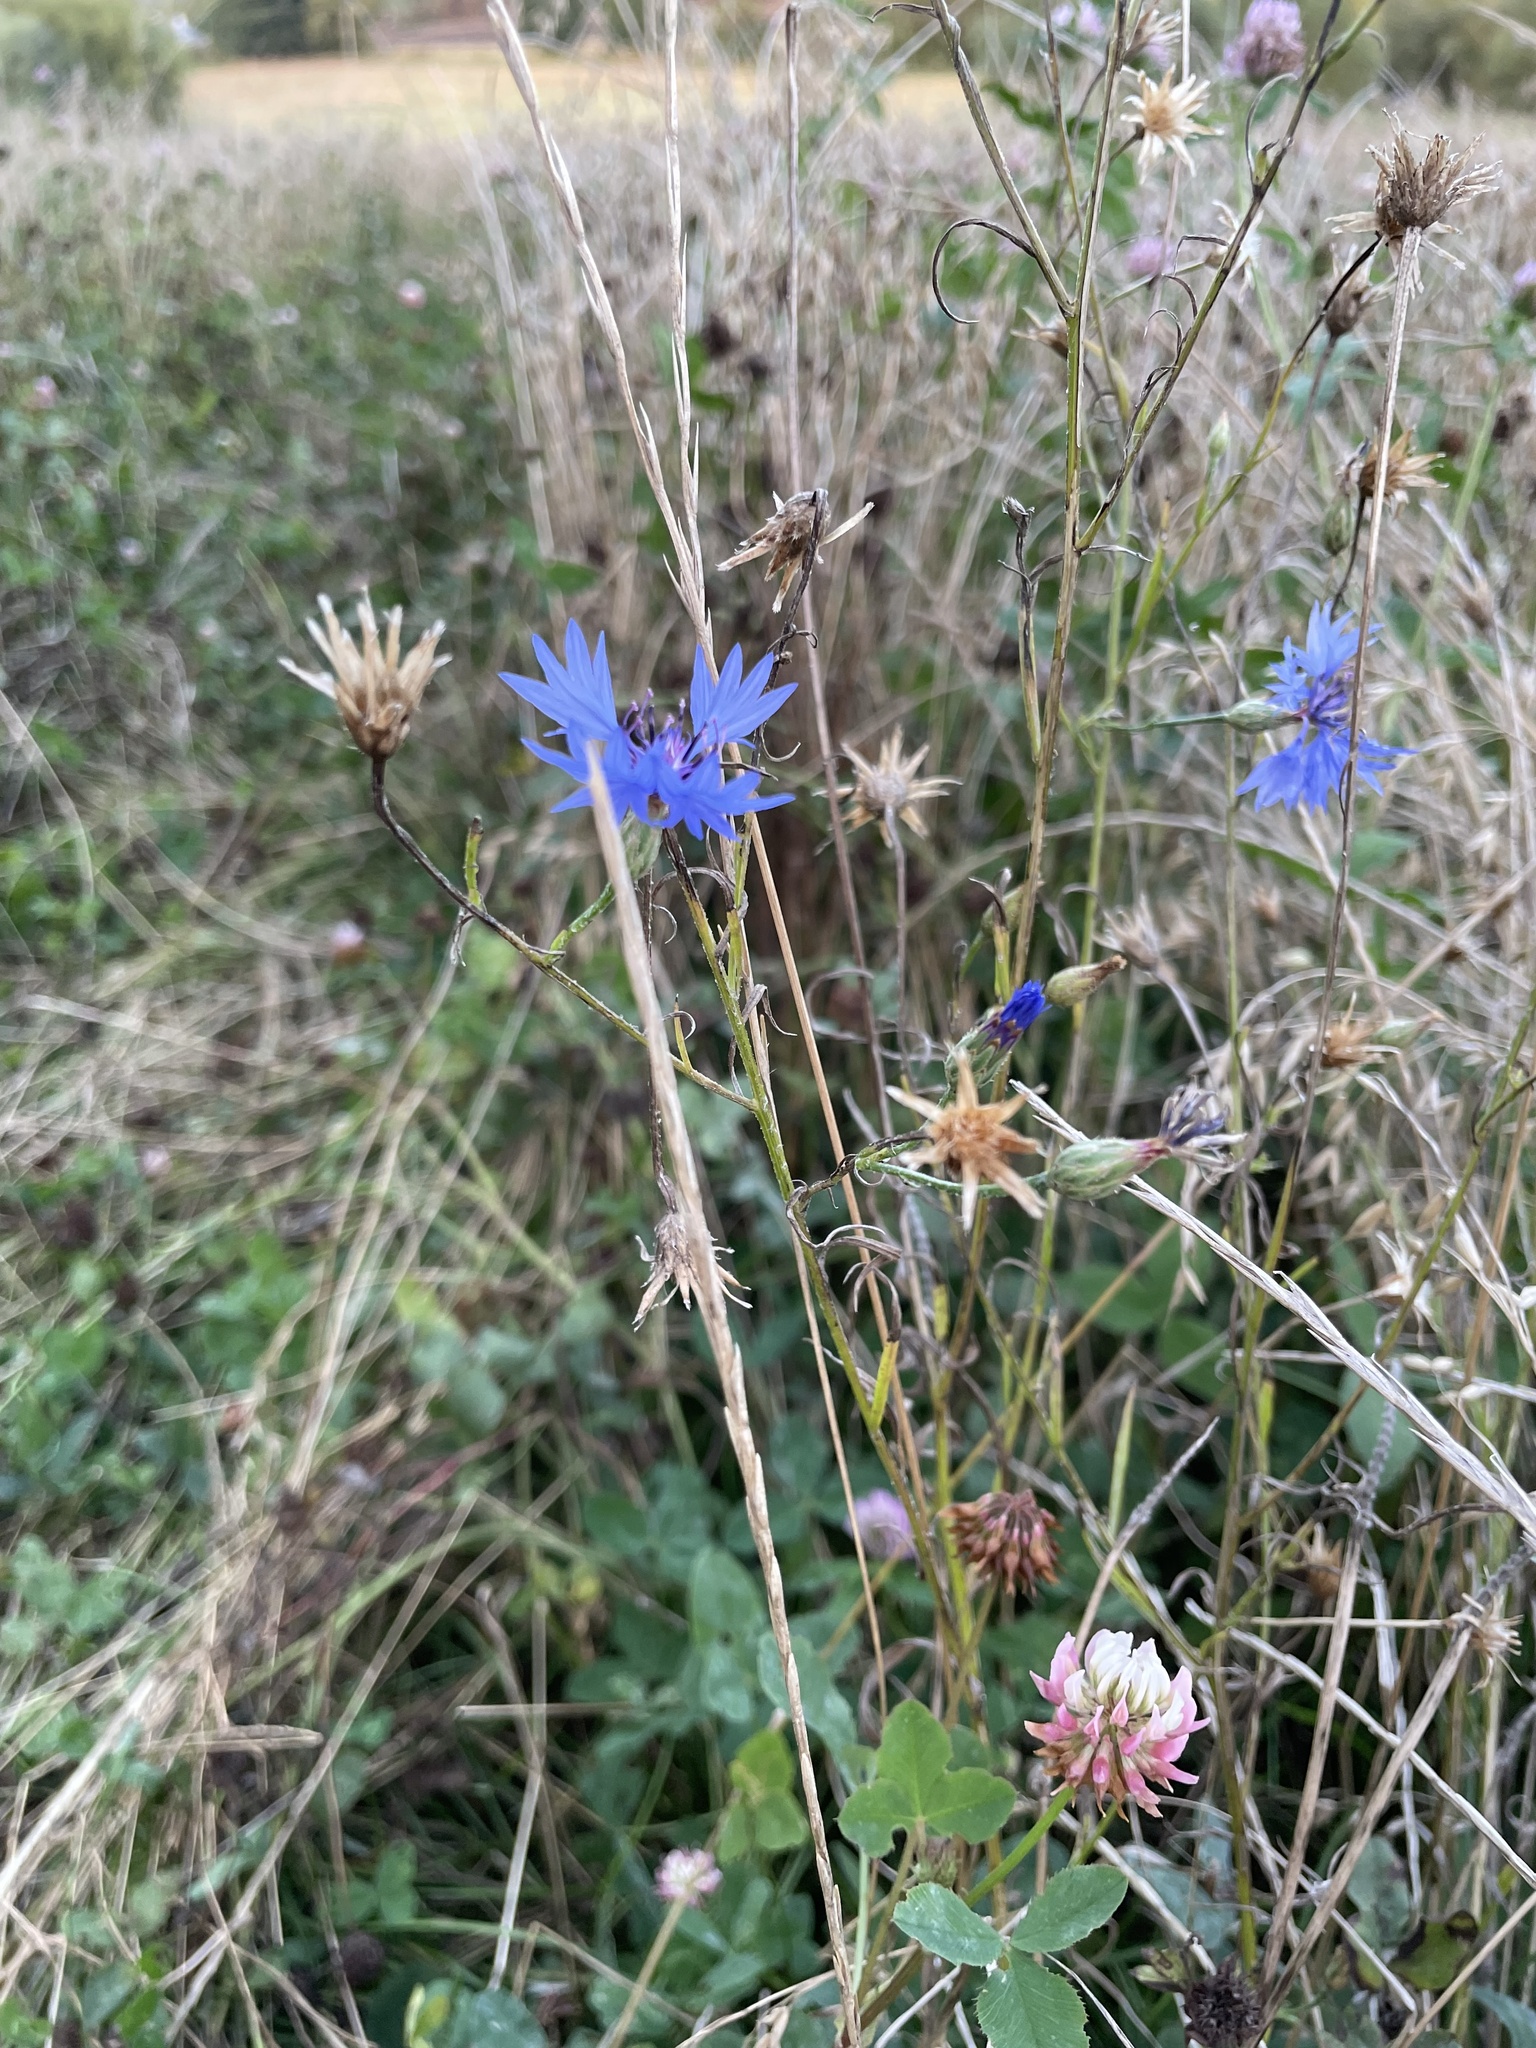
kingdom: Plantae
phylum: Tracheophyta
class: Magnoliopsida
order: Asterales
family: Asteraceae
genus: Centaurea
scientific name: Centaurea cyanus
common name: Cornflower
